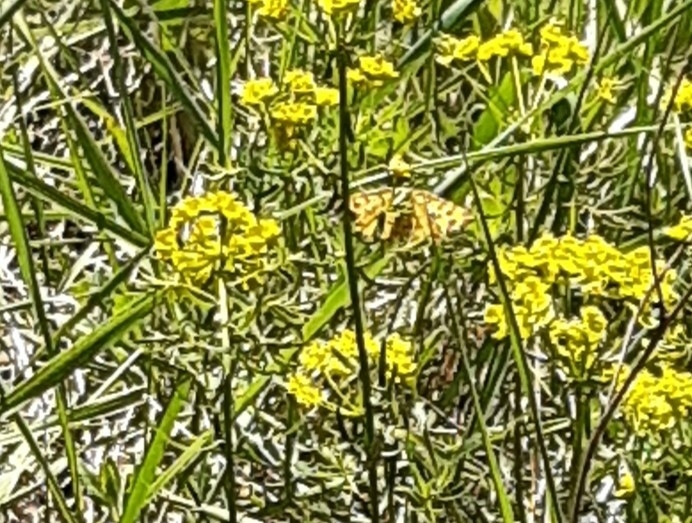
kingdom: Animalia
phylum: Arthropoda
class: Insecta
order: Lepidoptera
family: Geometridae
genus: Pseudopanthera
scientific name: Pseudopanthera macularia
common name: Speckled yellow
